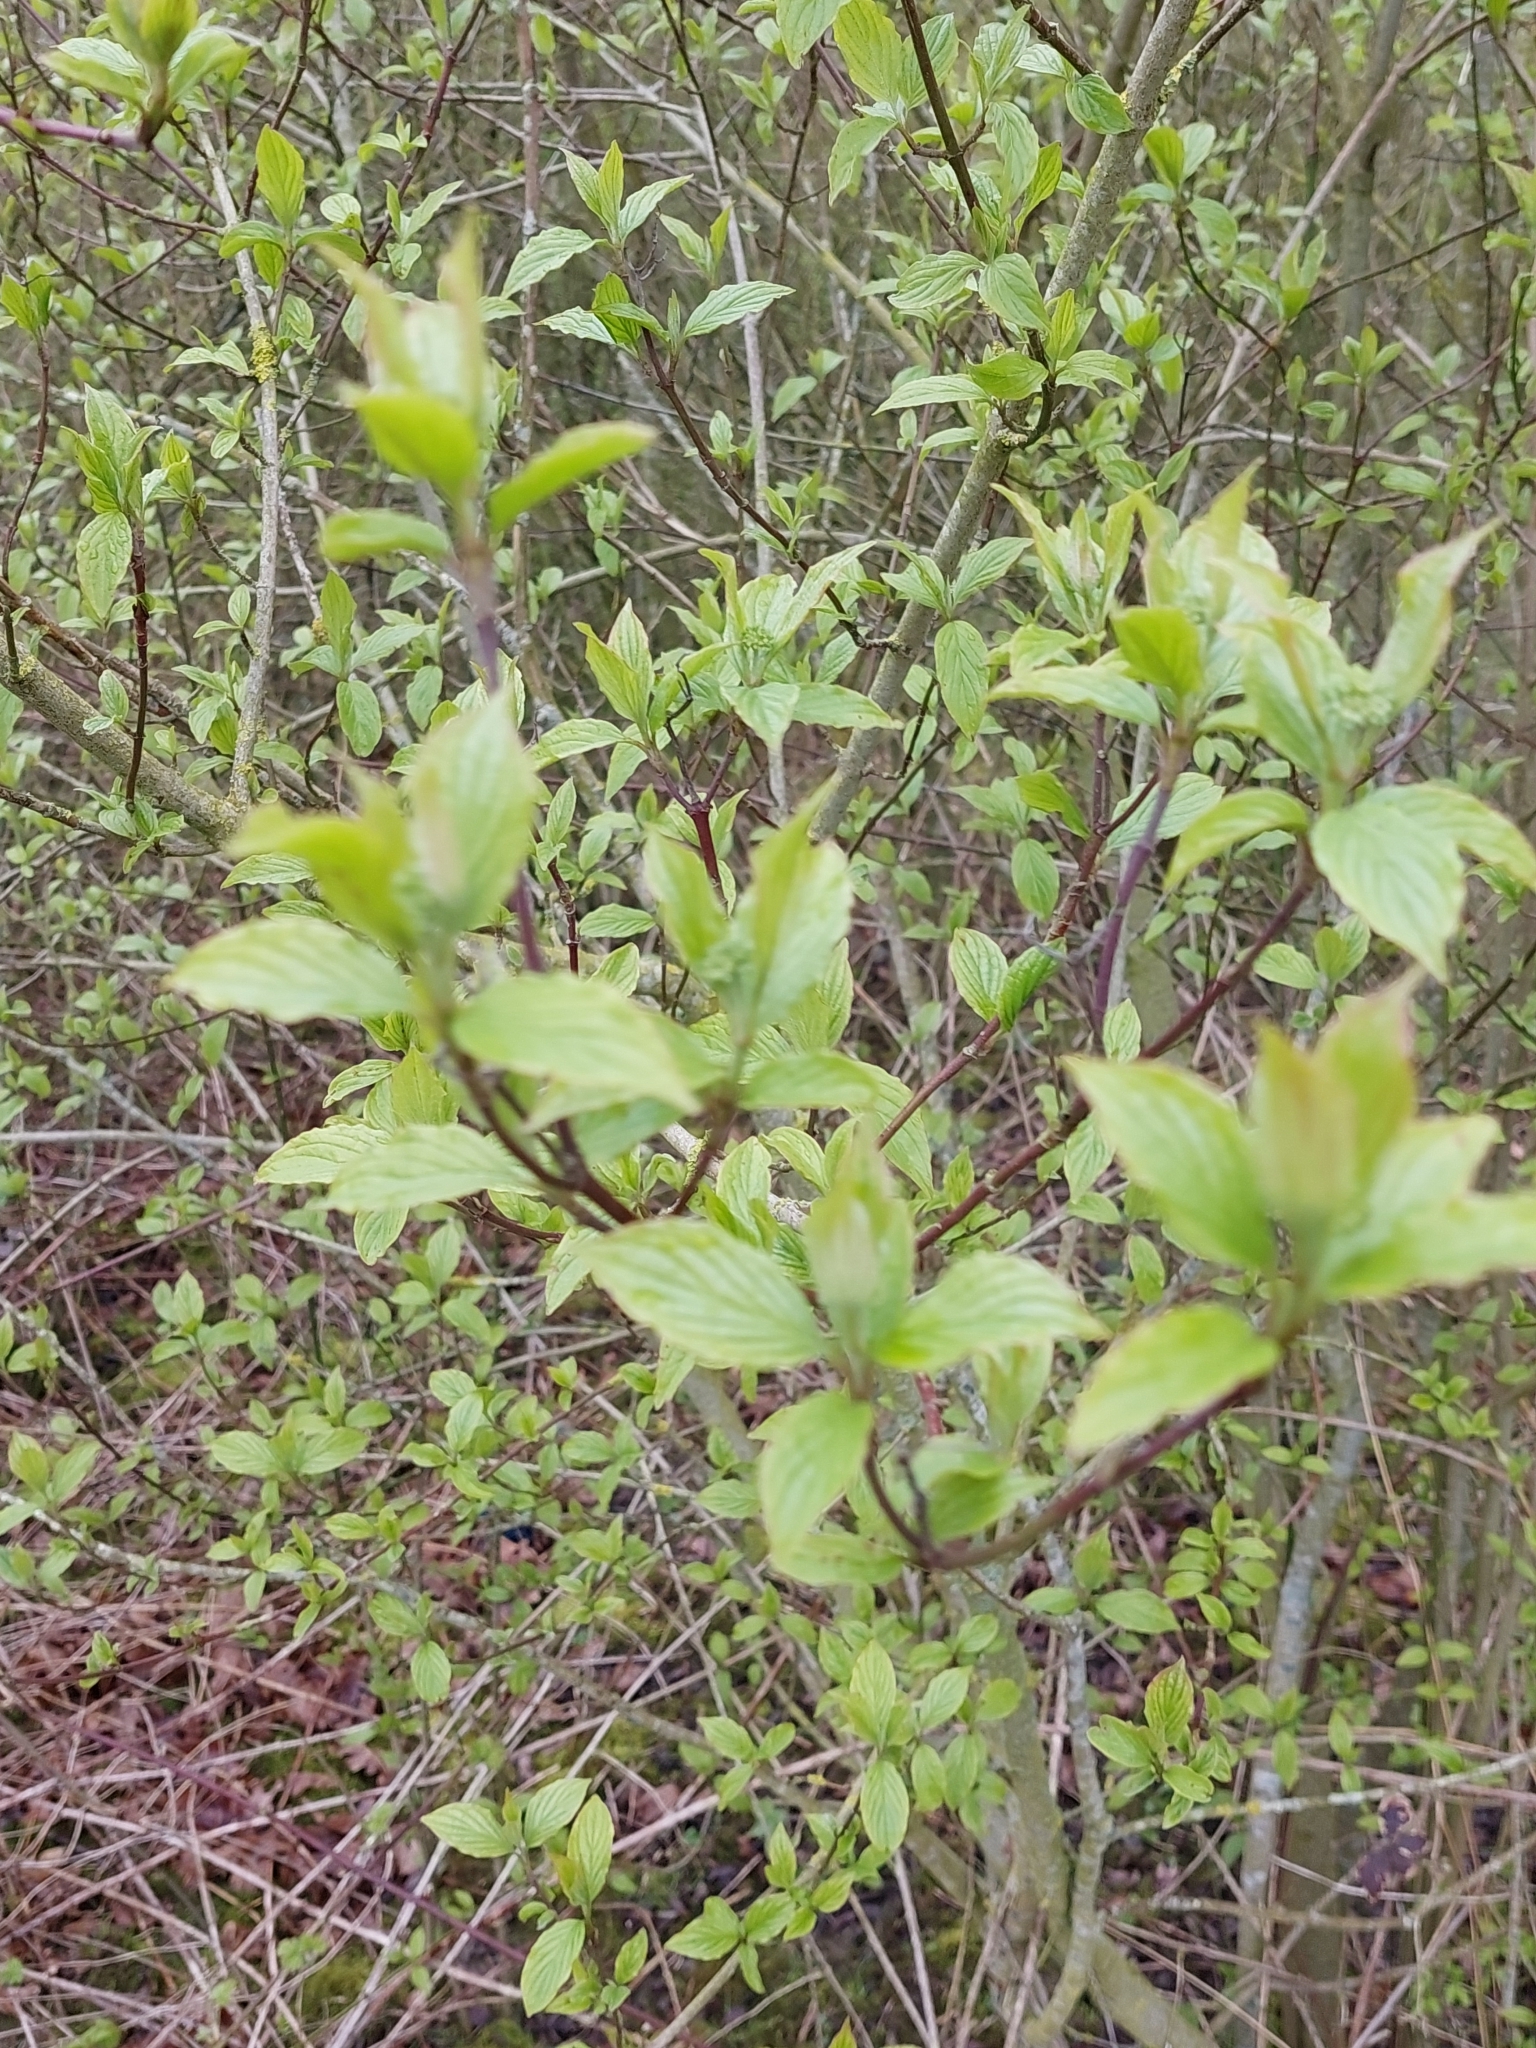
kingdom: Plantae
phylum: Tracheophyta
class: Magnoliopsida
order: Cornales
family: Cornaceae
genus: Cornus
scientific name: Cornus sanguinea
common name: Dogwood
